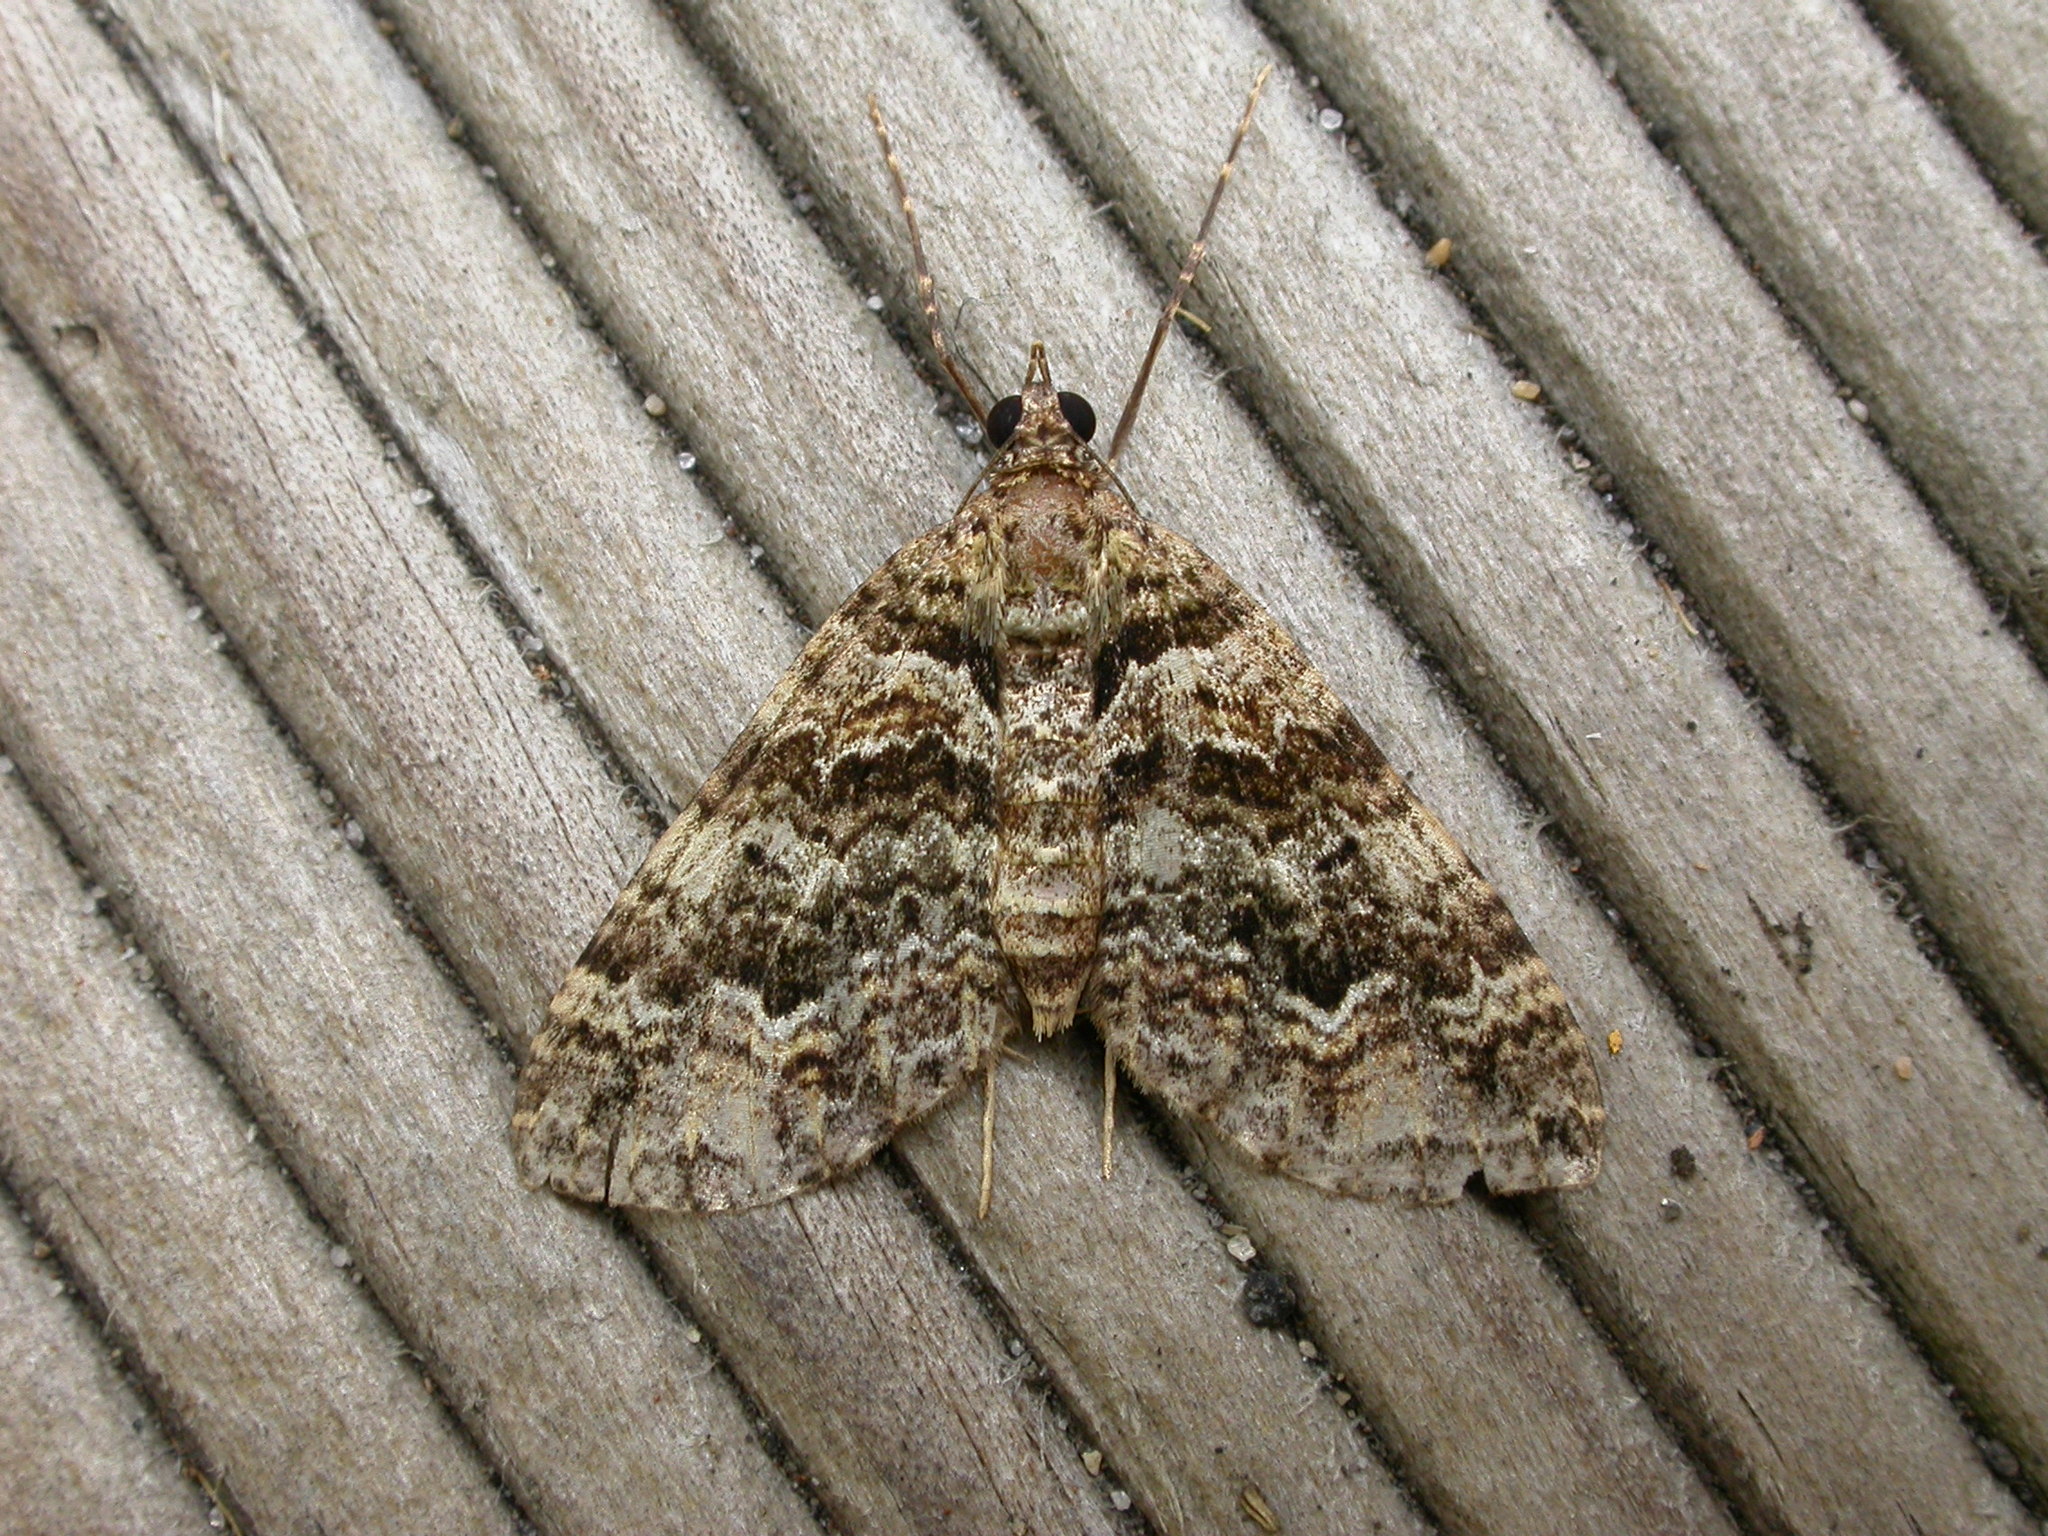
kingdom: Animalia
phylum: Arthropoda
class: Insecta
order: Lepidoptera
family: Geometridae
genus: Crasilogia
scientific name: Crasilogia gressitti
